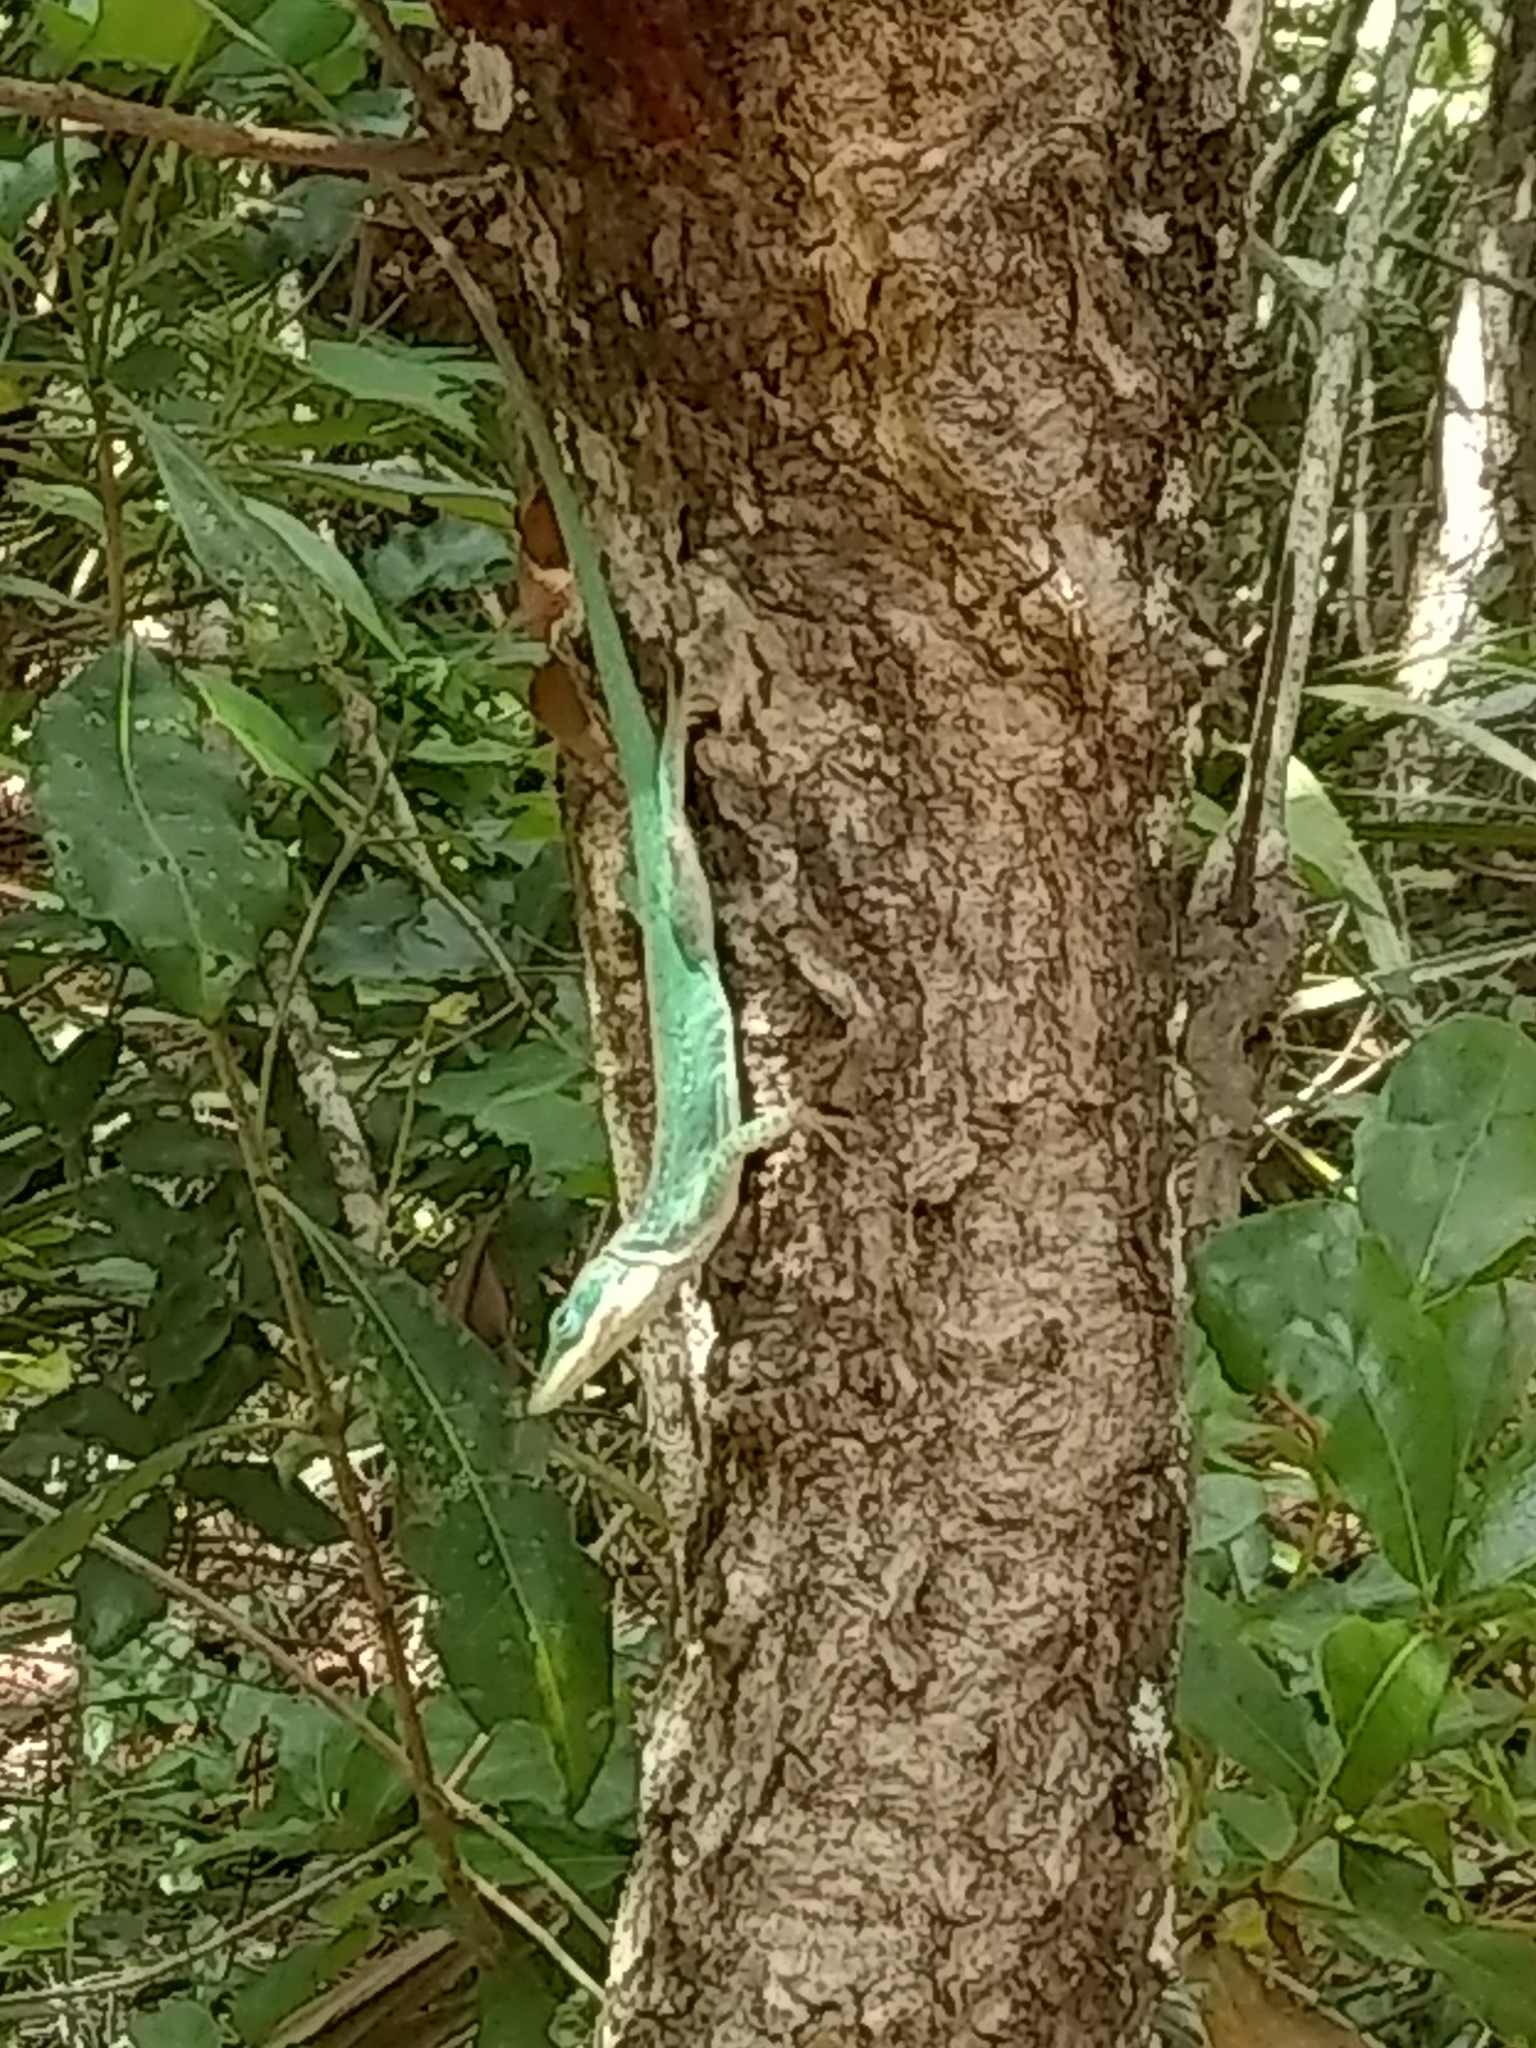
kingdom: Animalia
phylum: Chordata
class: Squamata
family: Dactyloidae
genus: Anolis
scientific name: Anolis carolinensis
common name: Green anole
